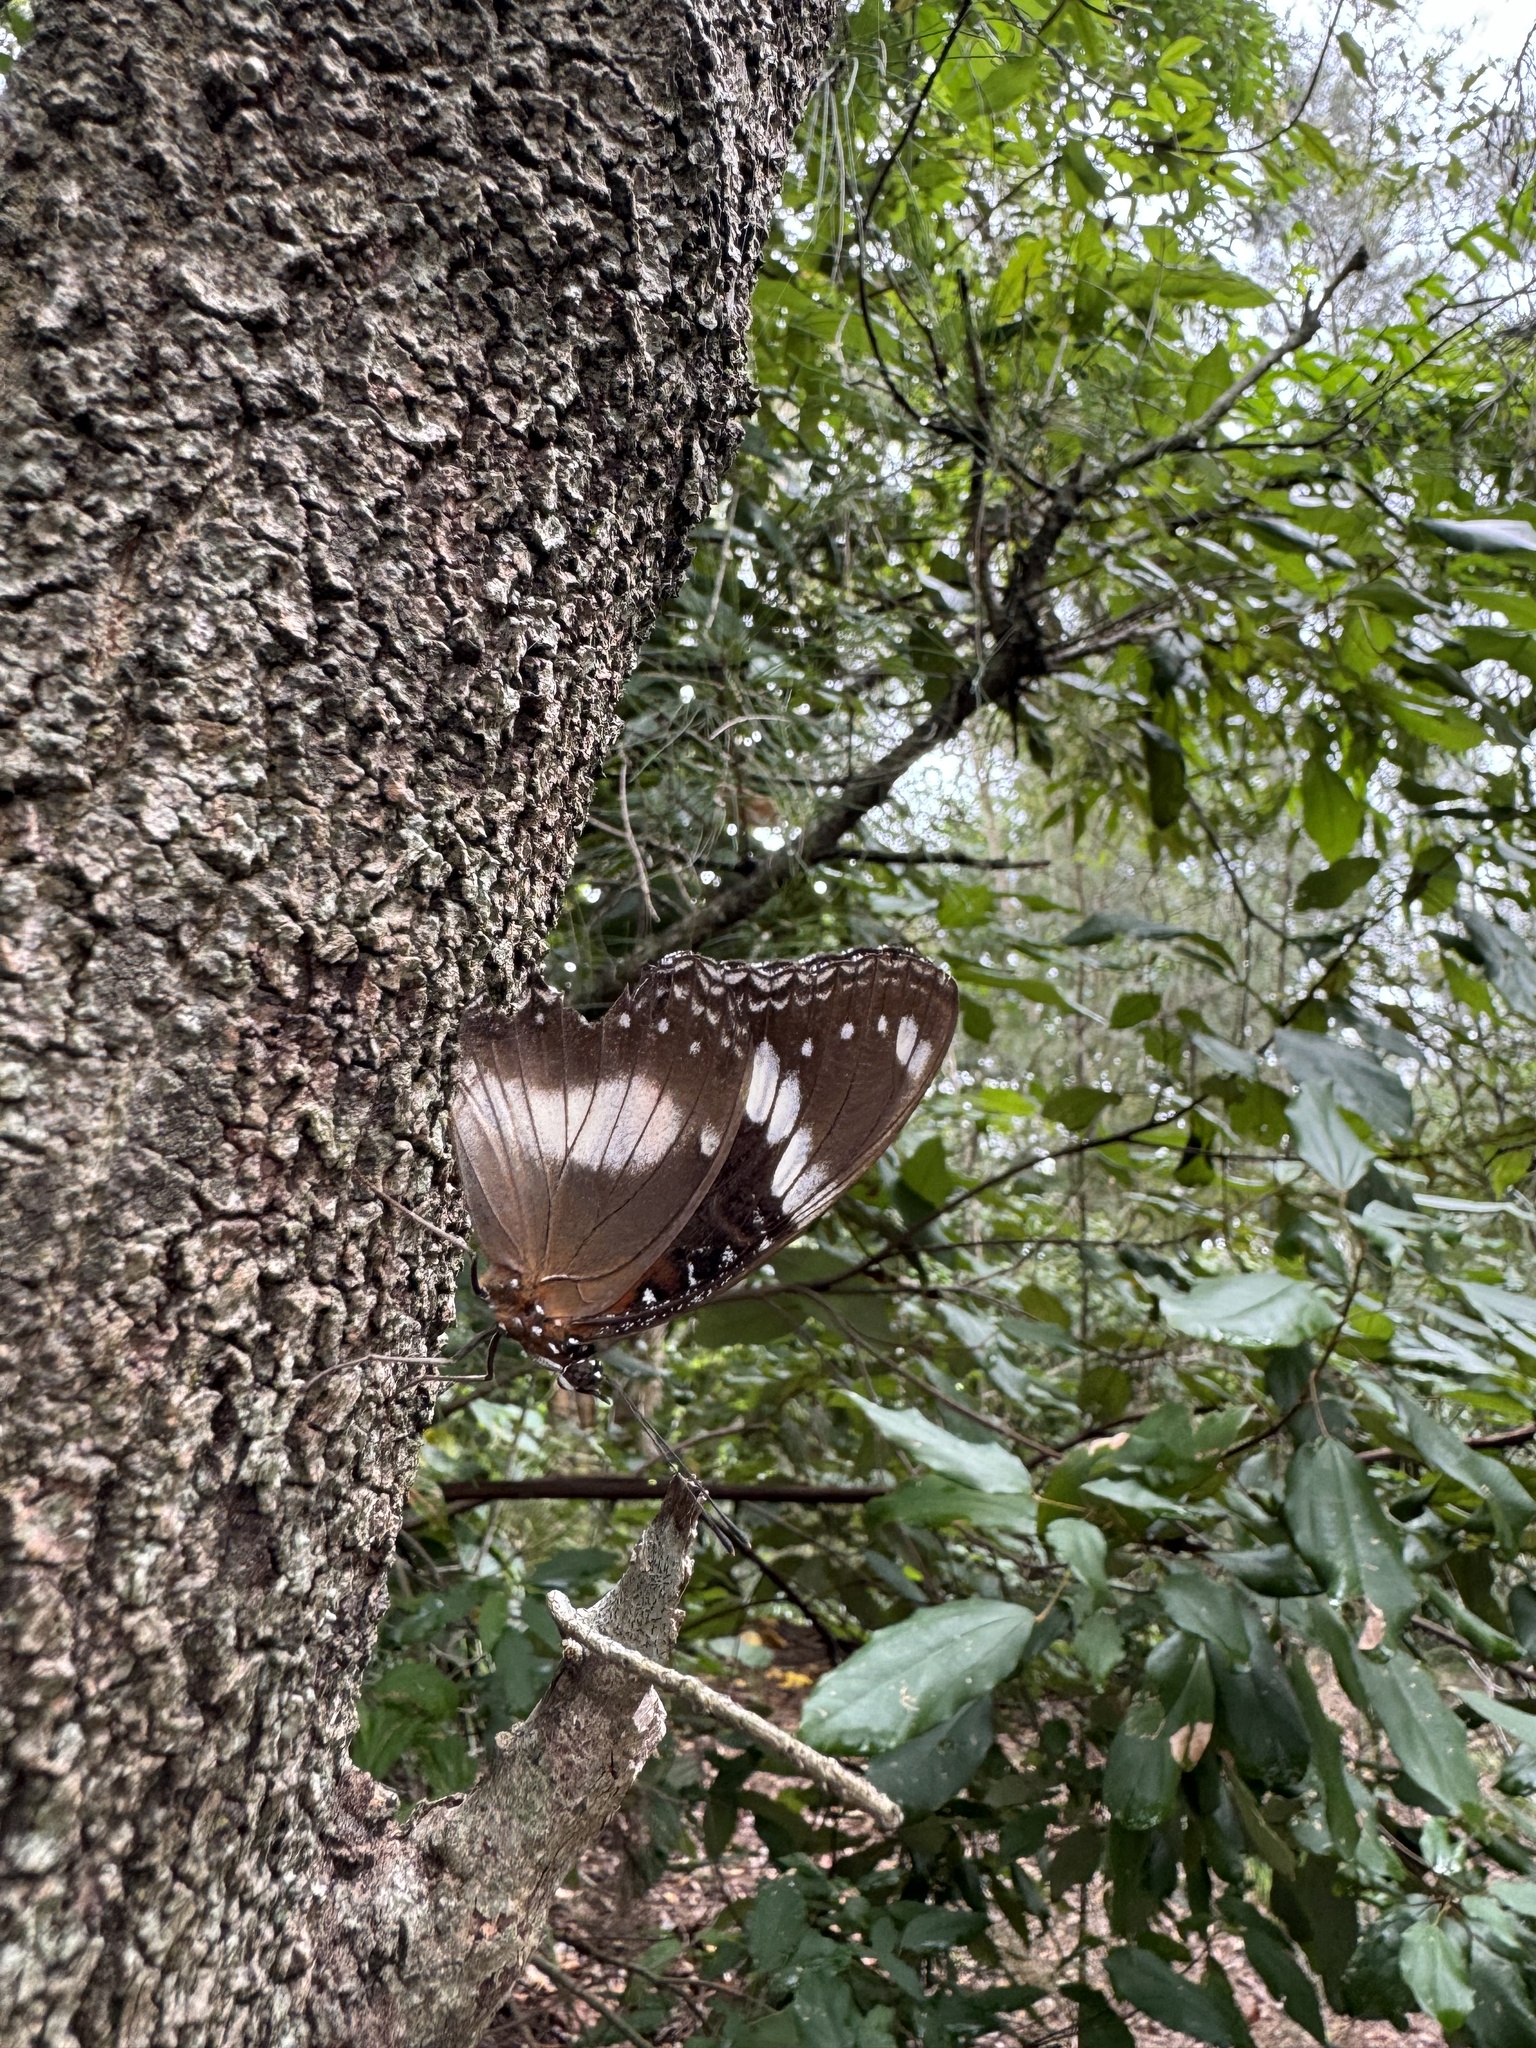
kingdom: Animalia
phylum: Arthropoda
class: Insecta
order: Lepidoptera
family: Nymphalidae
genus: Hypolimnas
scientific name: Hypolimnas bolina
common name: Great eggfly
